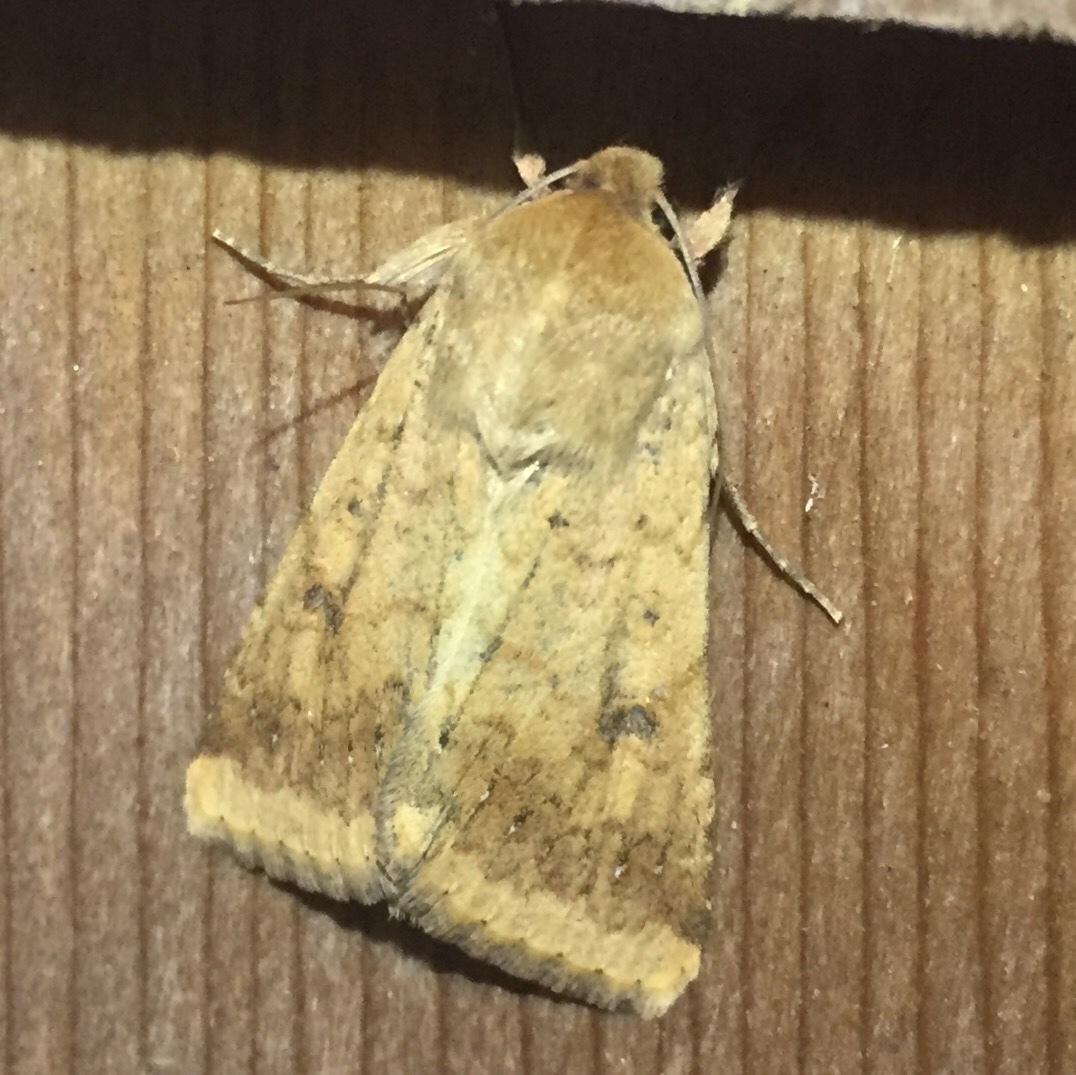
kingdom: Animalia
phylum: Arthropoda
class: Insecta
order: Lepidoptera
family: Noctuidae
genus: Helicoverpa
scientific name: Helicoverpa zea
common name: Bollworm
